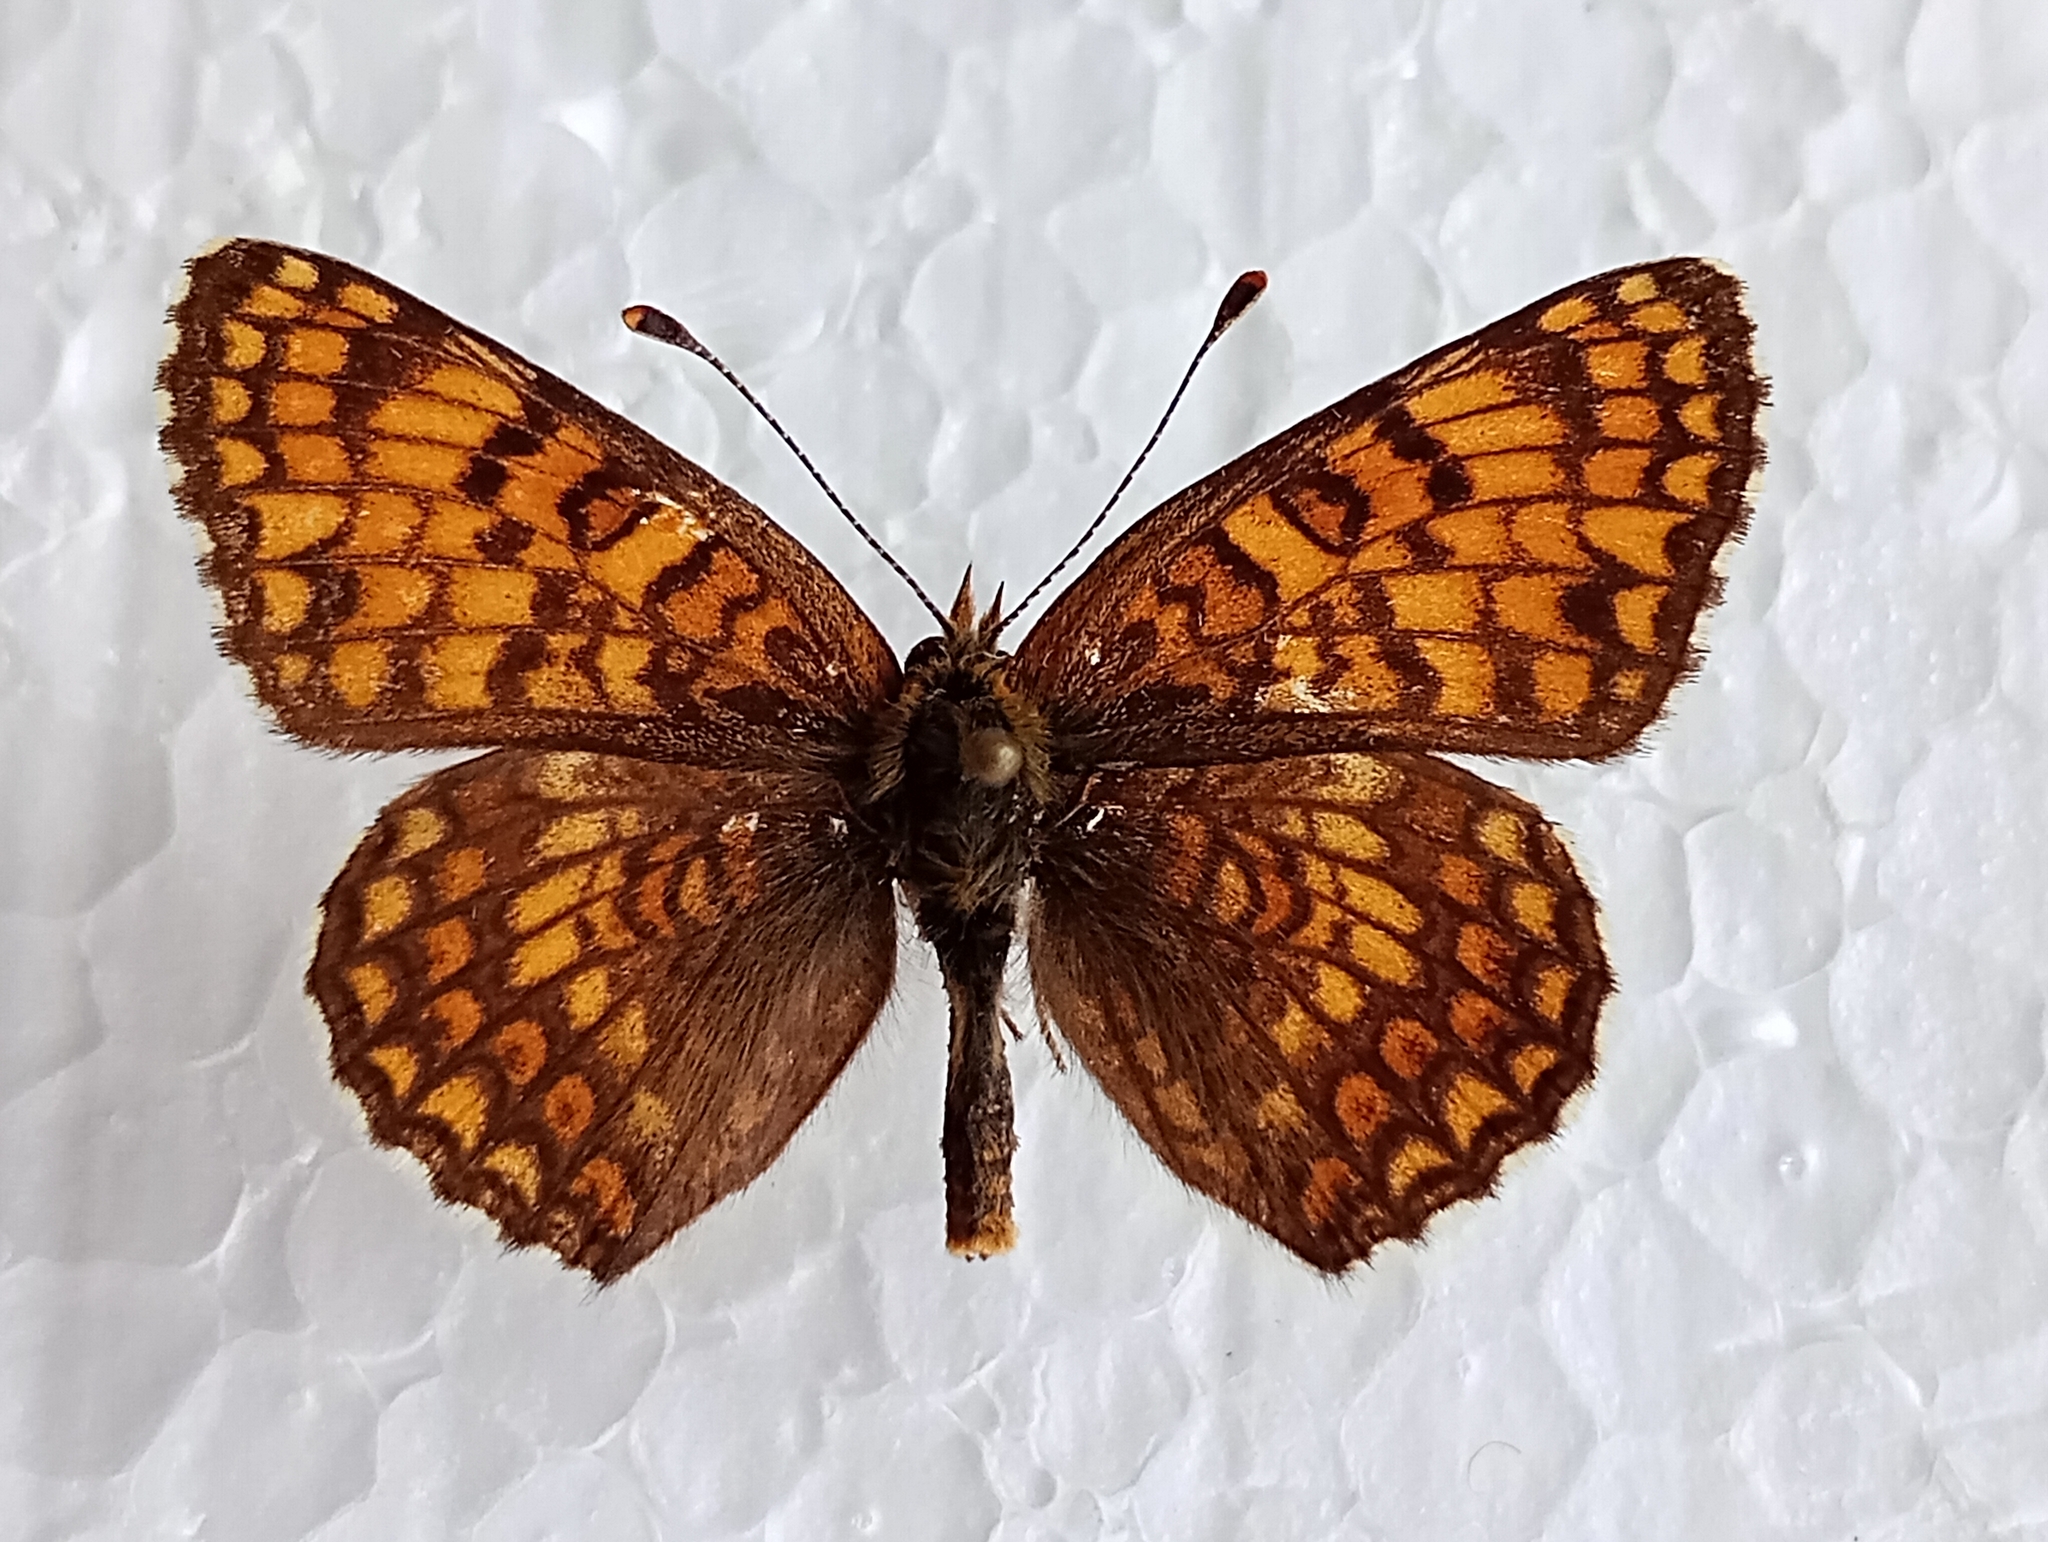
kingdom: Animalia
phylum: Arthropoda
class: Insecta
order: Lepidoptera
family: Nymphalidae
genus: Melitaea
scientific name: Melitaea phoebe
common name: Knapweed fritillary
